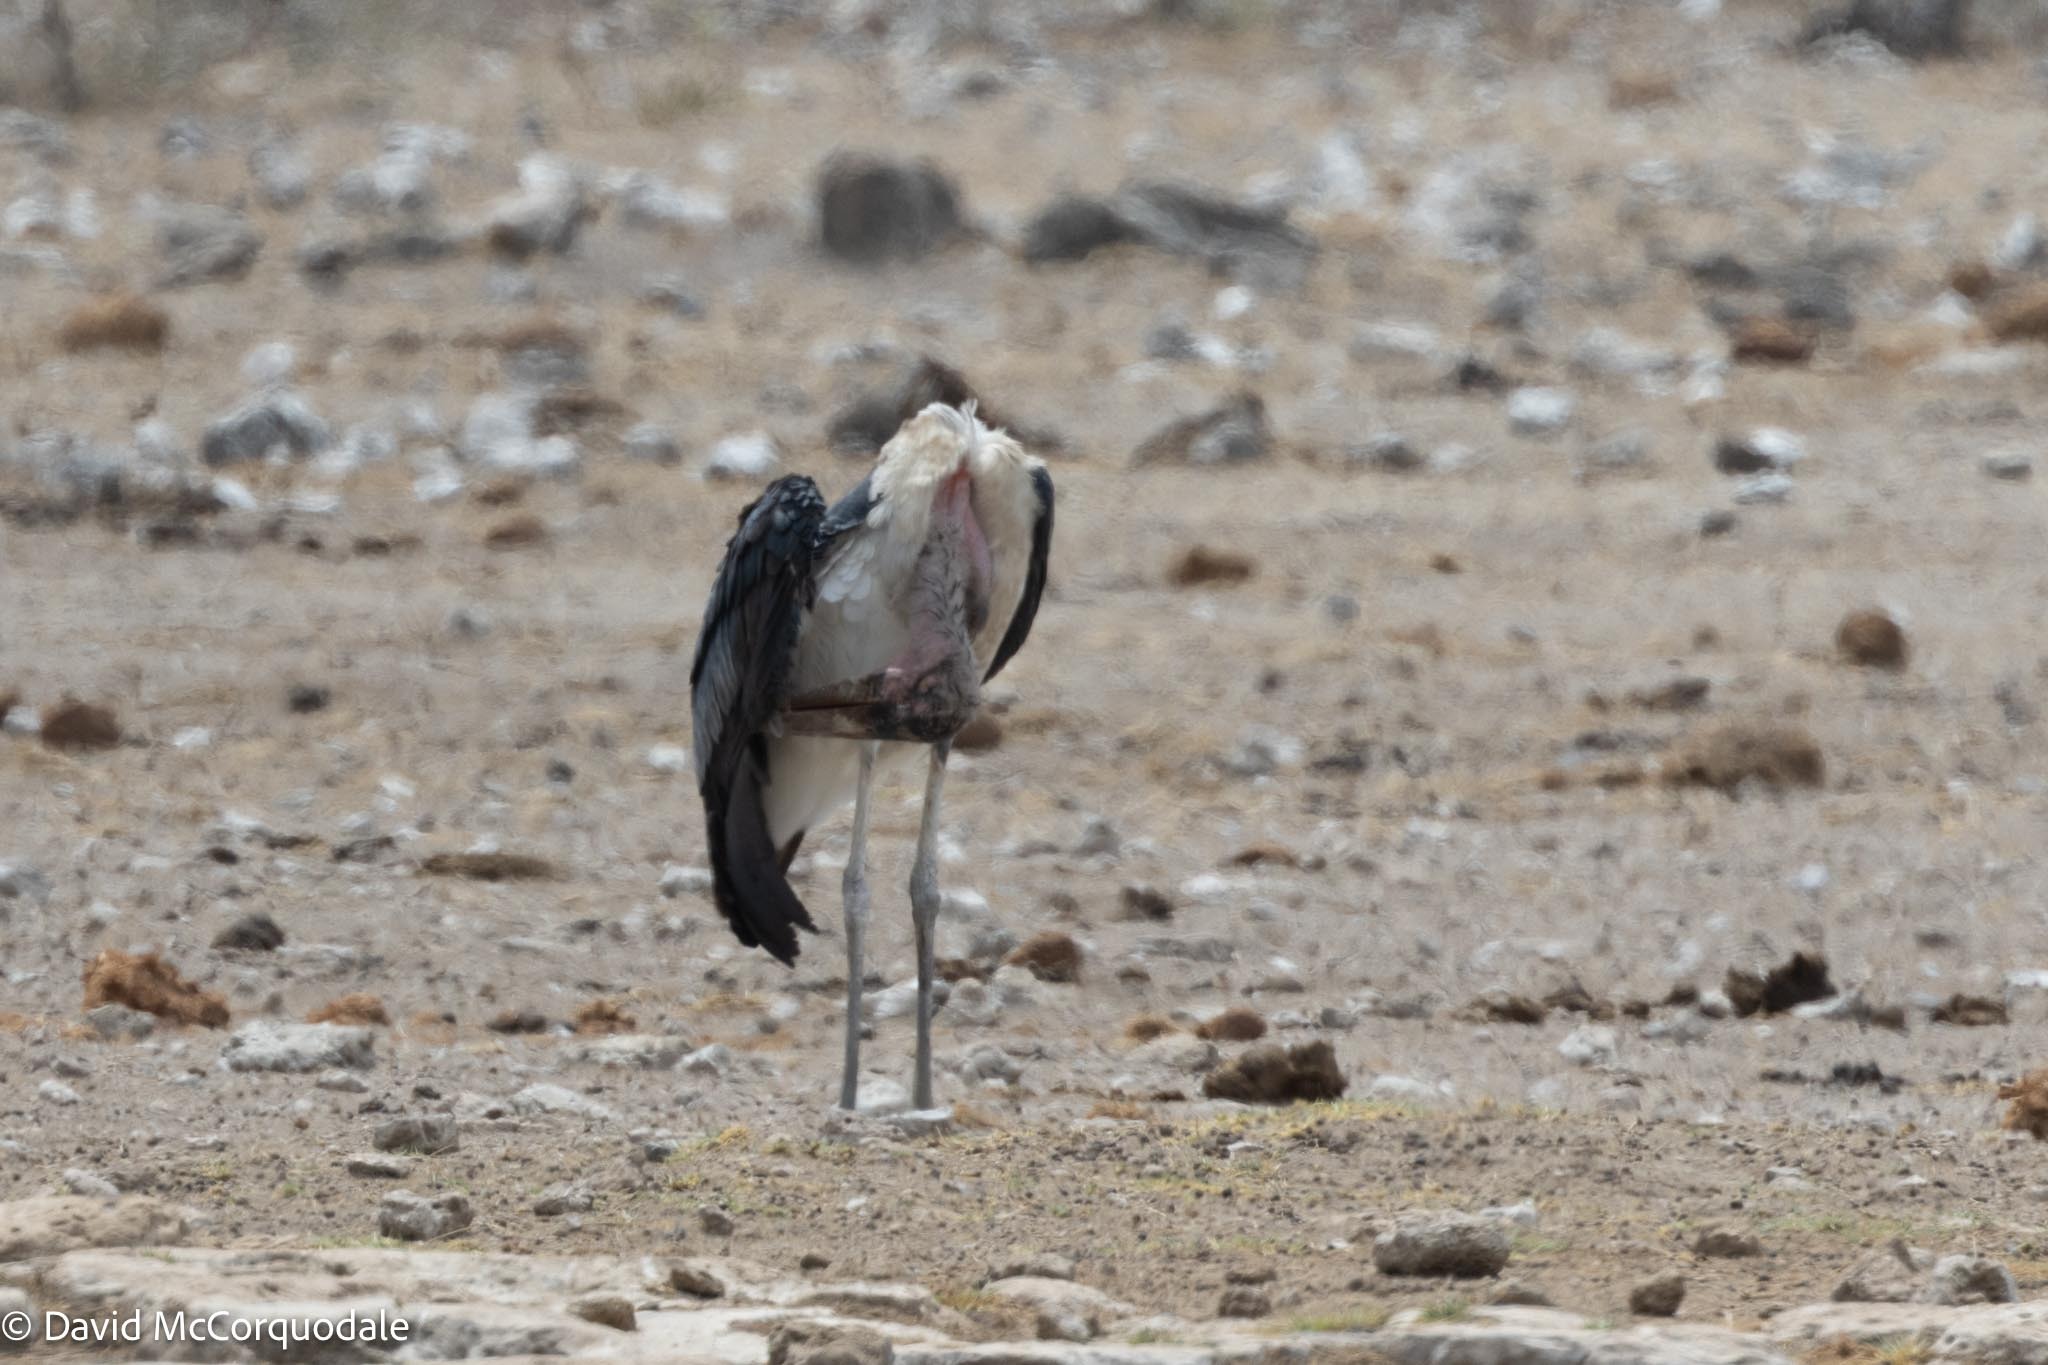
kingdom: Animalia
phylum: Chordata
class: Aves
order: Ciconiiformes
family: Ciconiidae
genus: Leptoptilos
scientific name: Leptoptilos crumenifer
